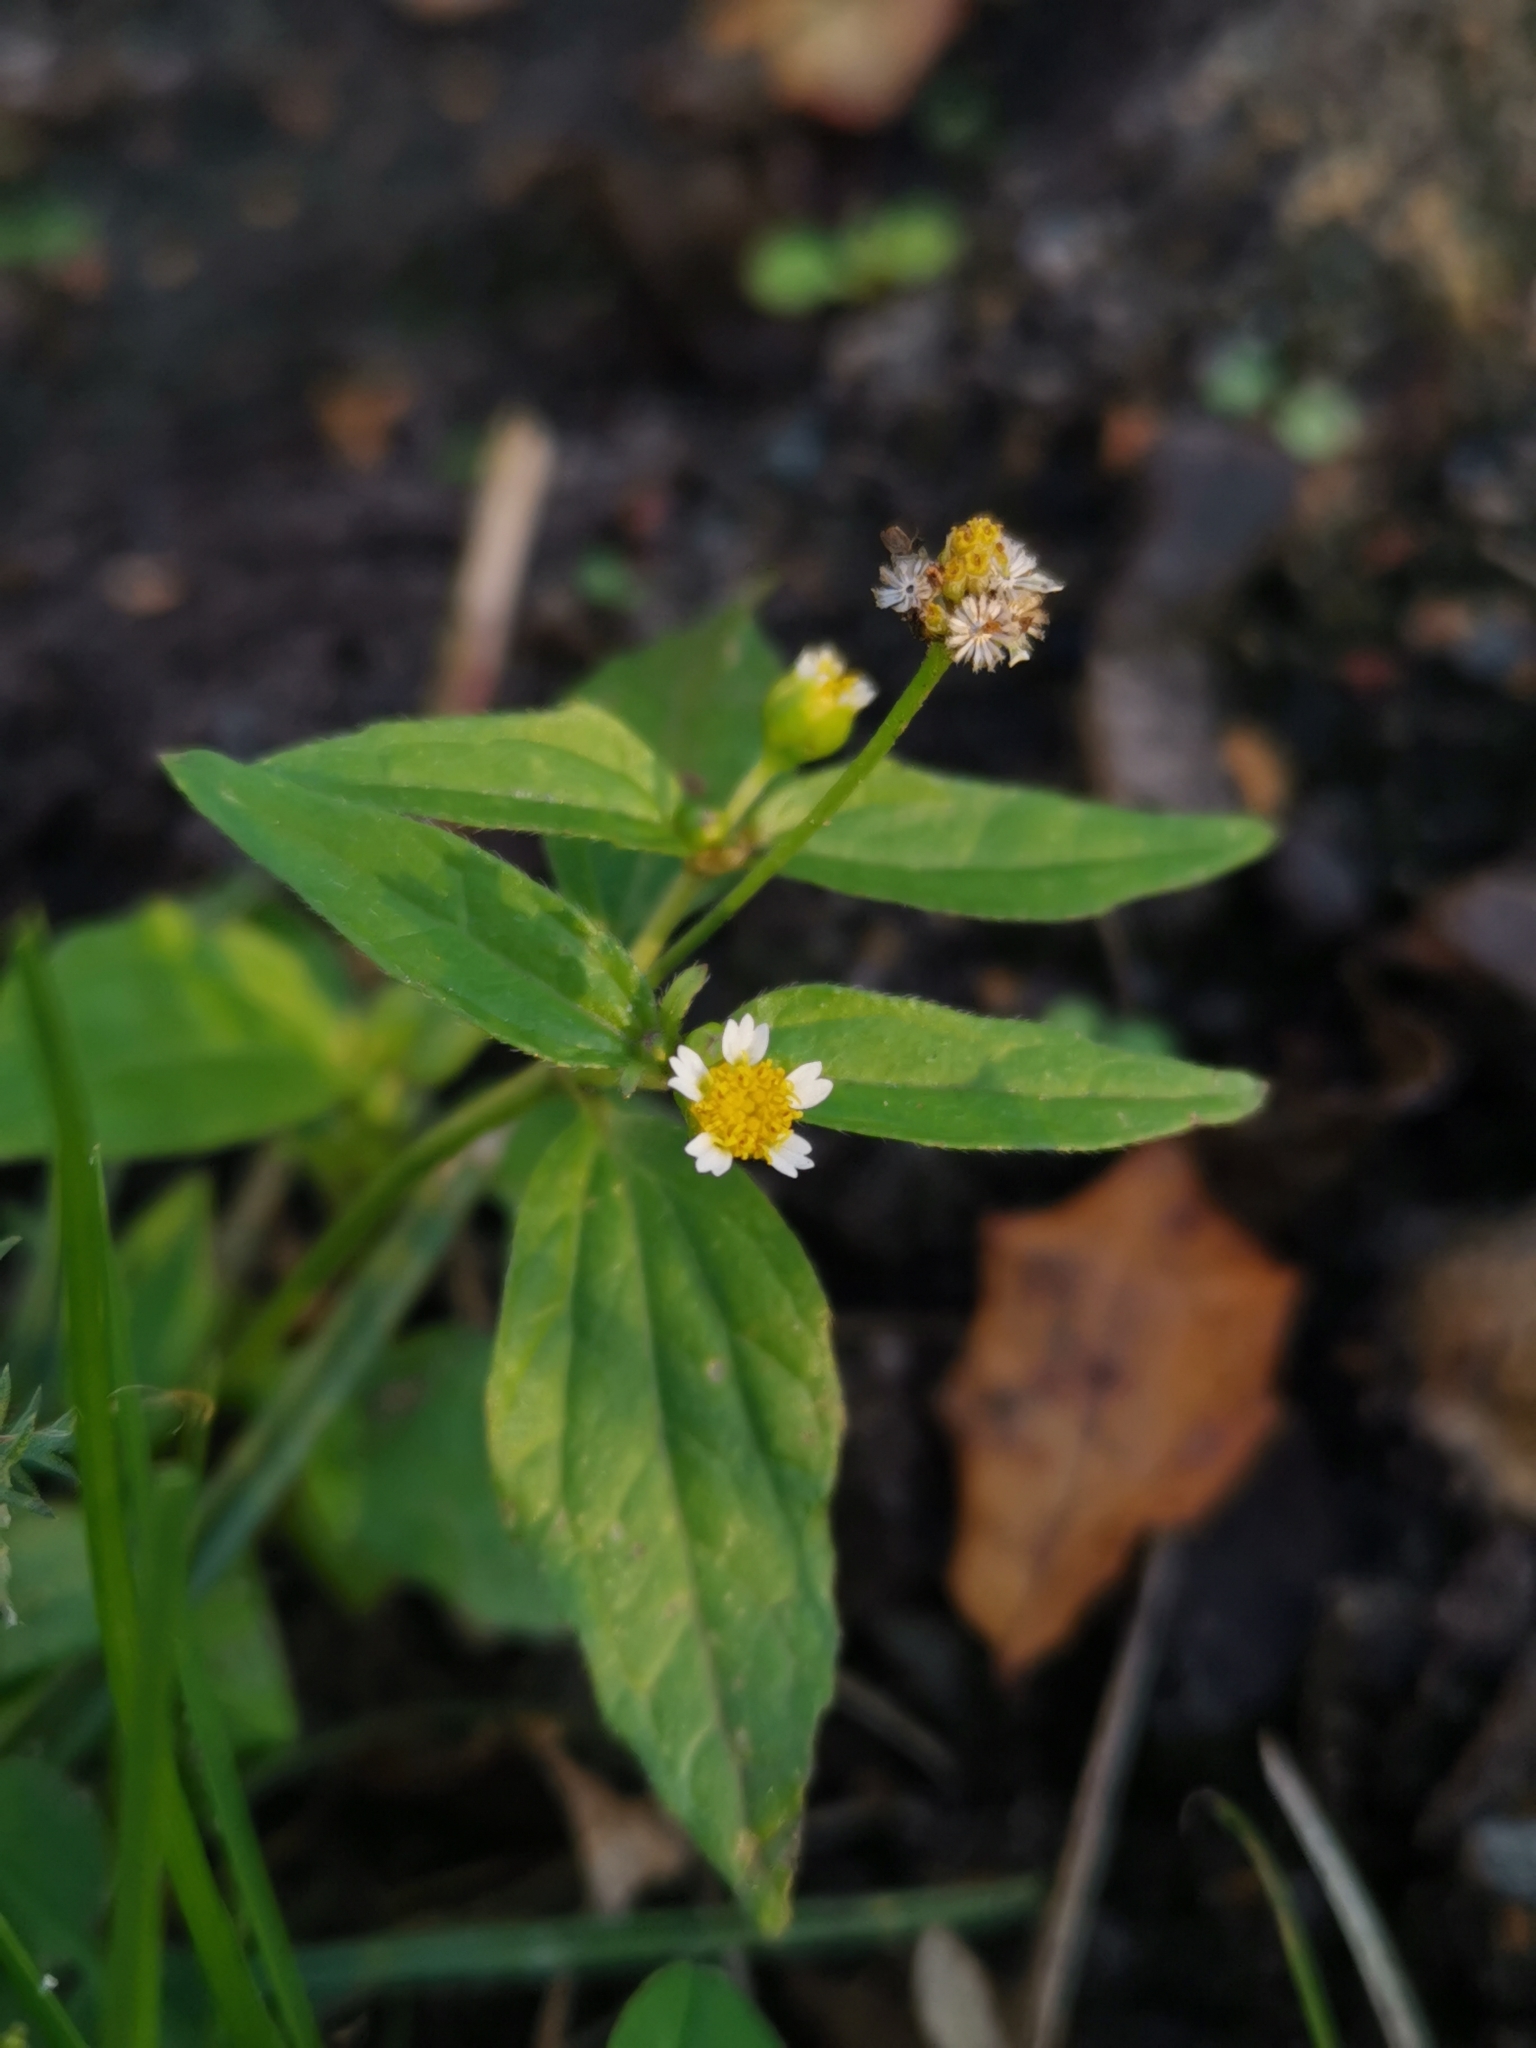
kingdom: Plantae
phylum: Tracheophyta
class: Magnoliopsida
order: Asterales
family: Asteraceae
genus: Galinsoga
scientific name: Galinsoga parviflora
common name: Gallant soldier
